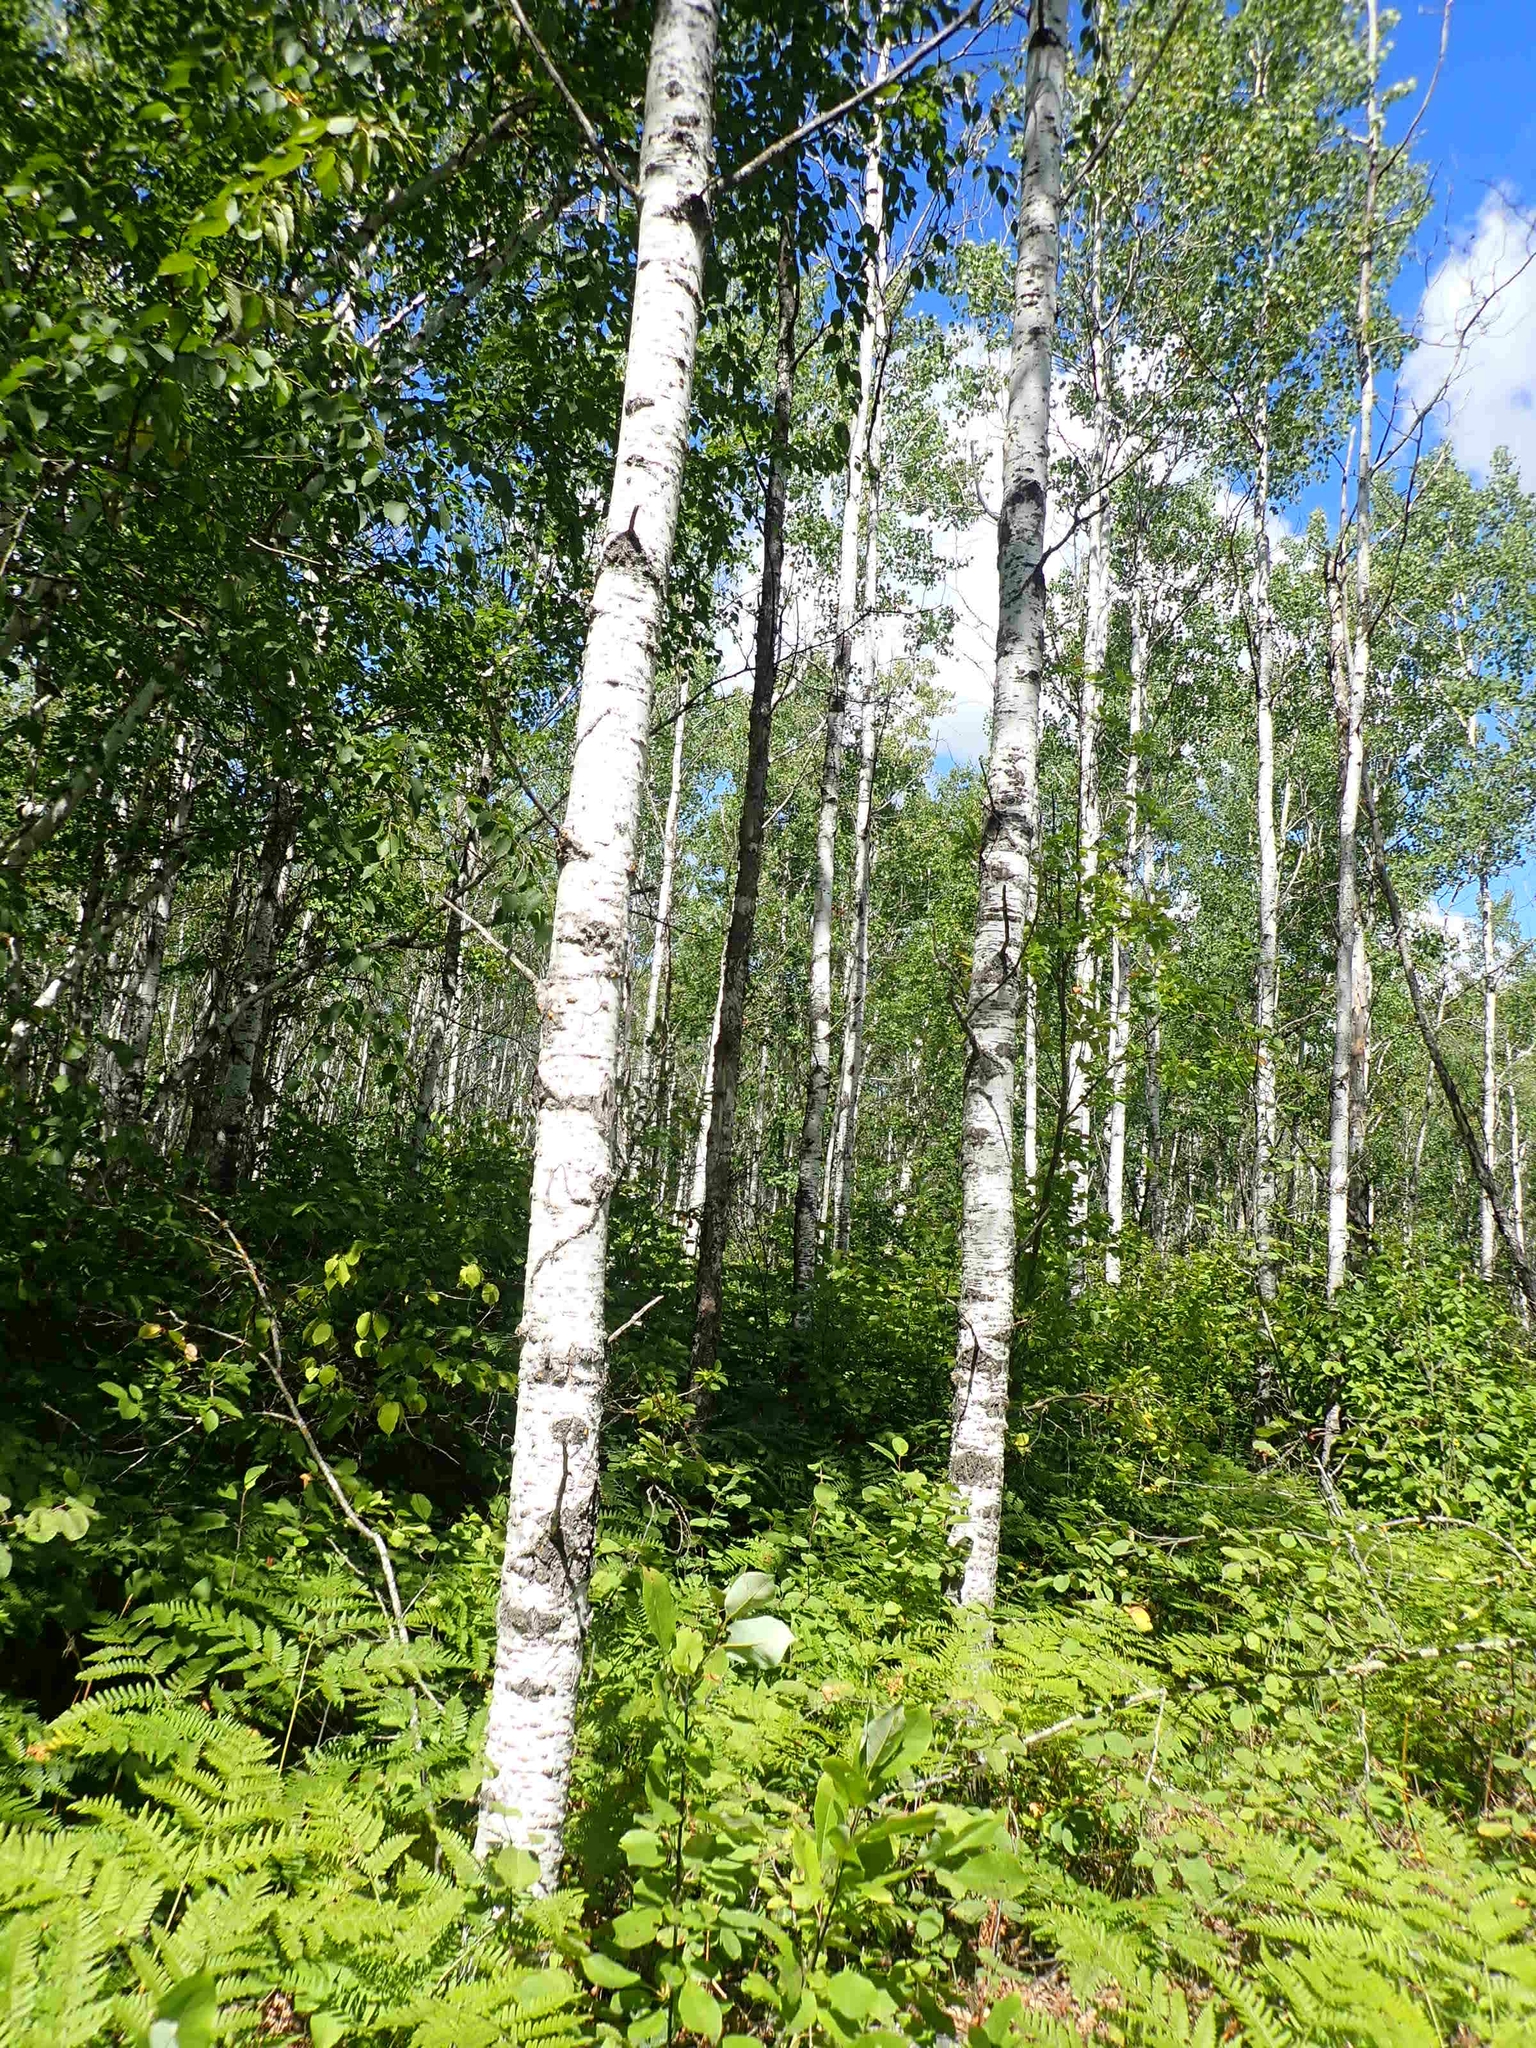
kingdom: Plantae
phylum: Tracheophyta
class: Magnoliopsida
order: Malpighiales
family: Salicaceae
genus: Populus
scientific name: Populus tremuloides
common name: Quaking aspen
